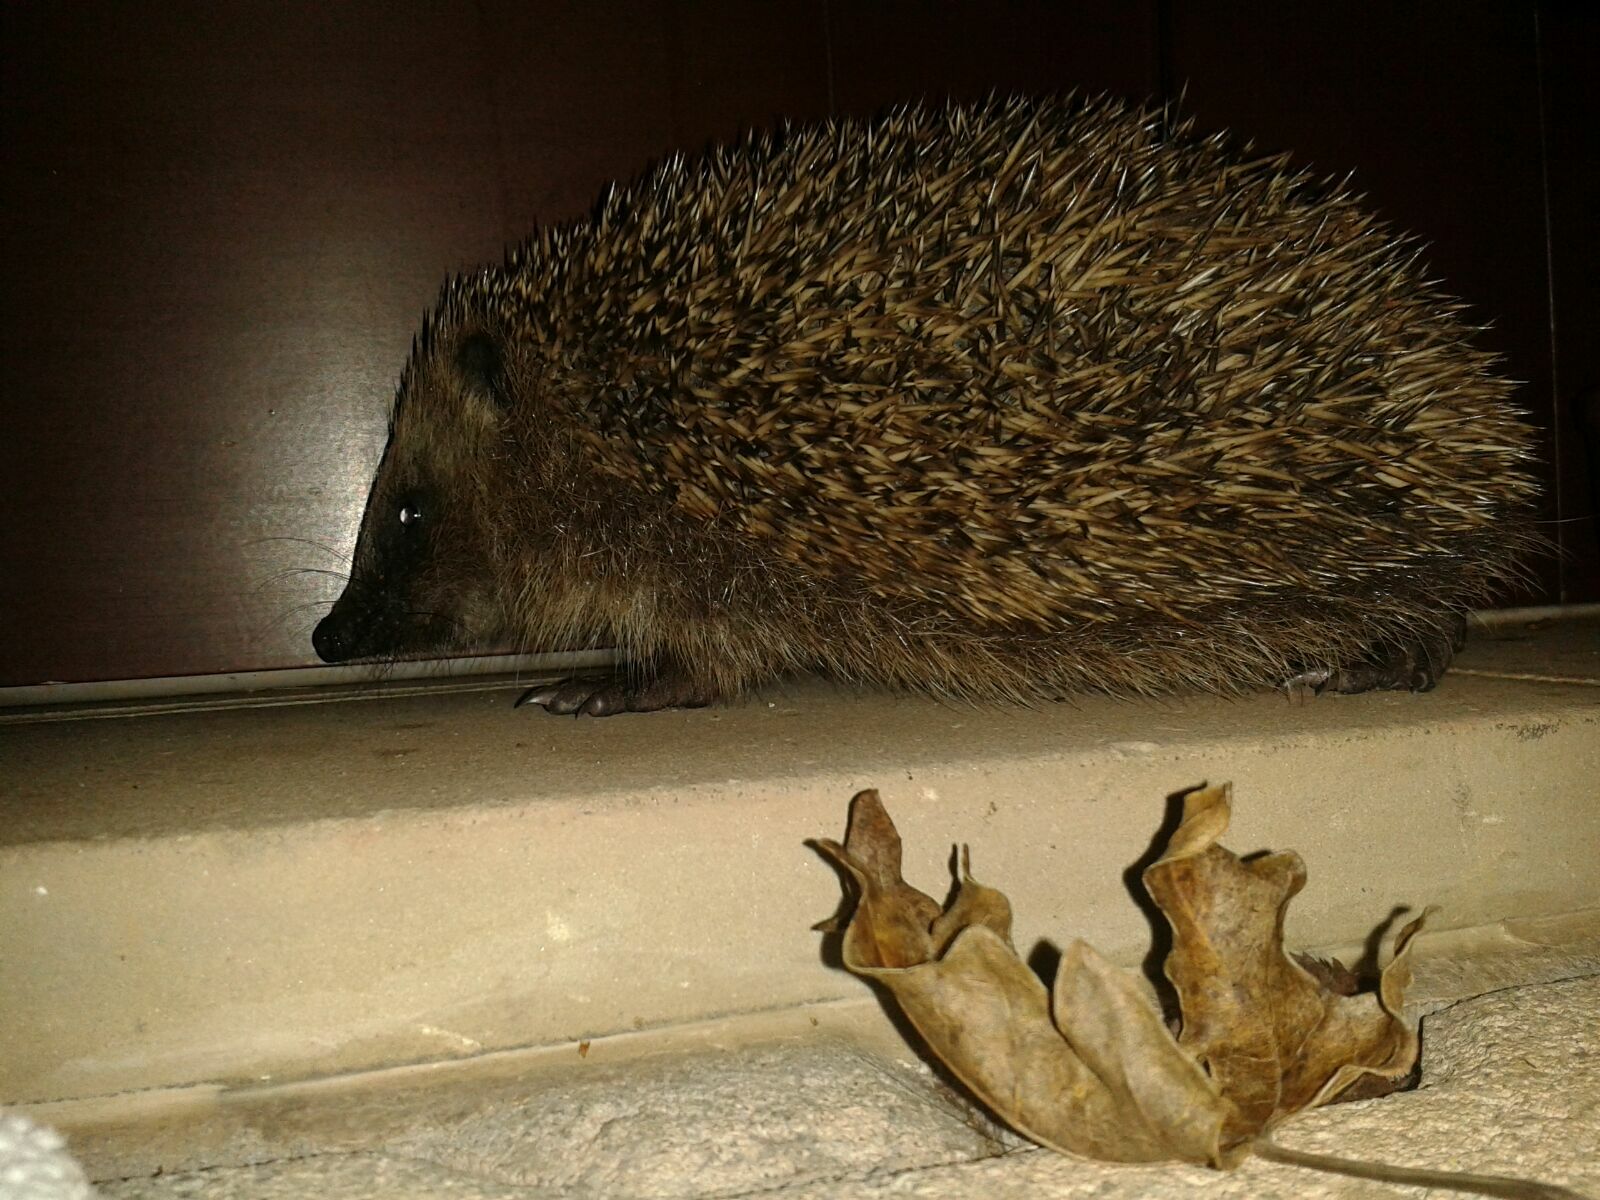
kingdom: Animalia
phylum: Chordata
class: Mammalia
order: Erinaceomorpha
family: Erinaceidae
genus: Erinaceus
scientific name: Erinaceus europaeus
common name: West european hedgehog
